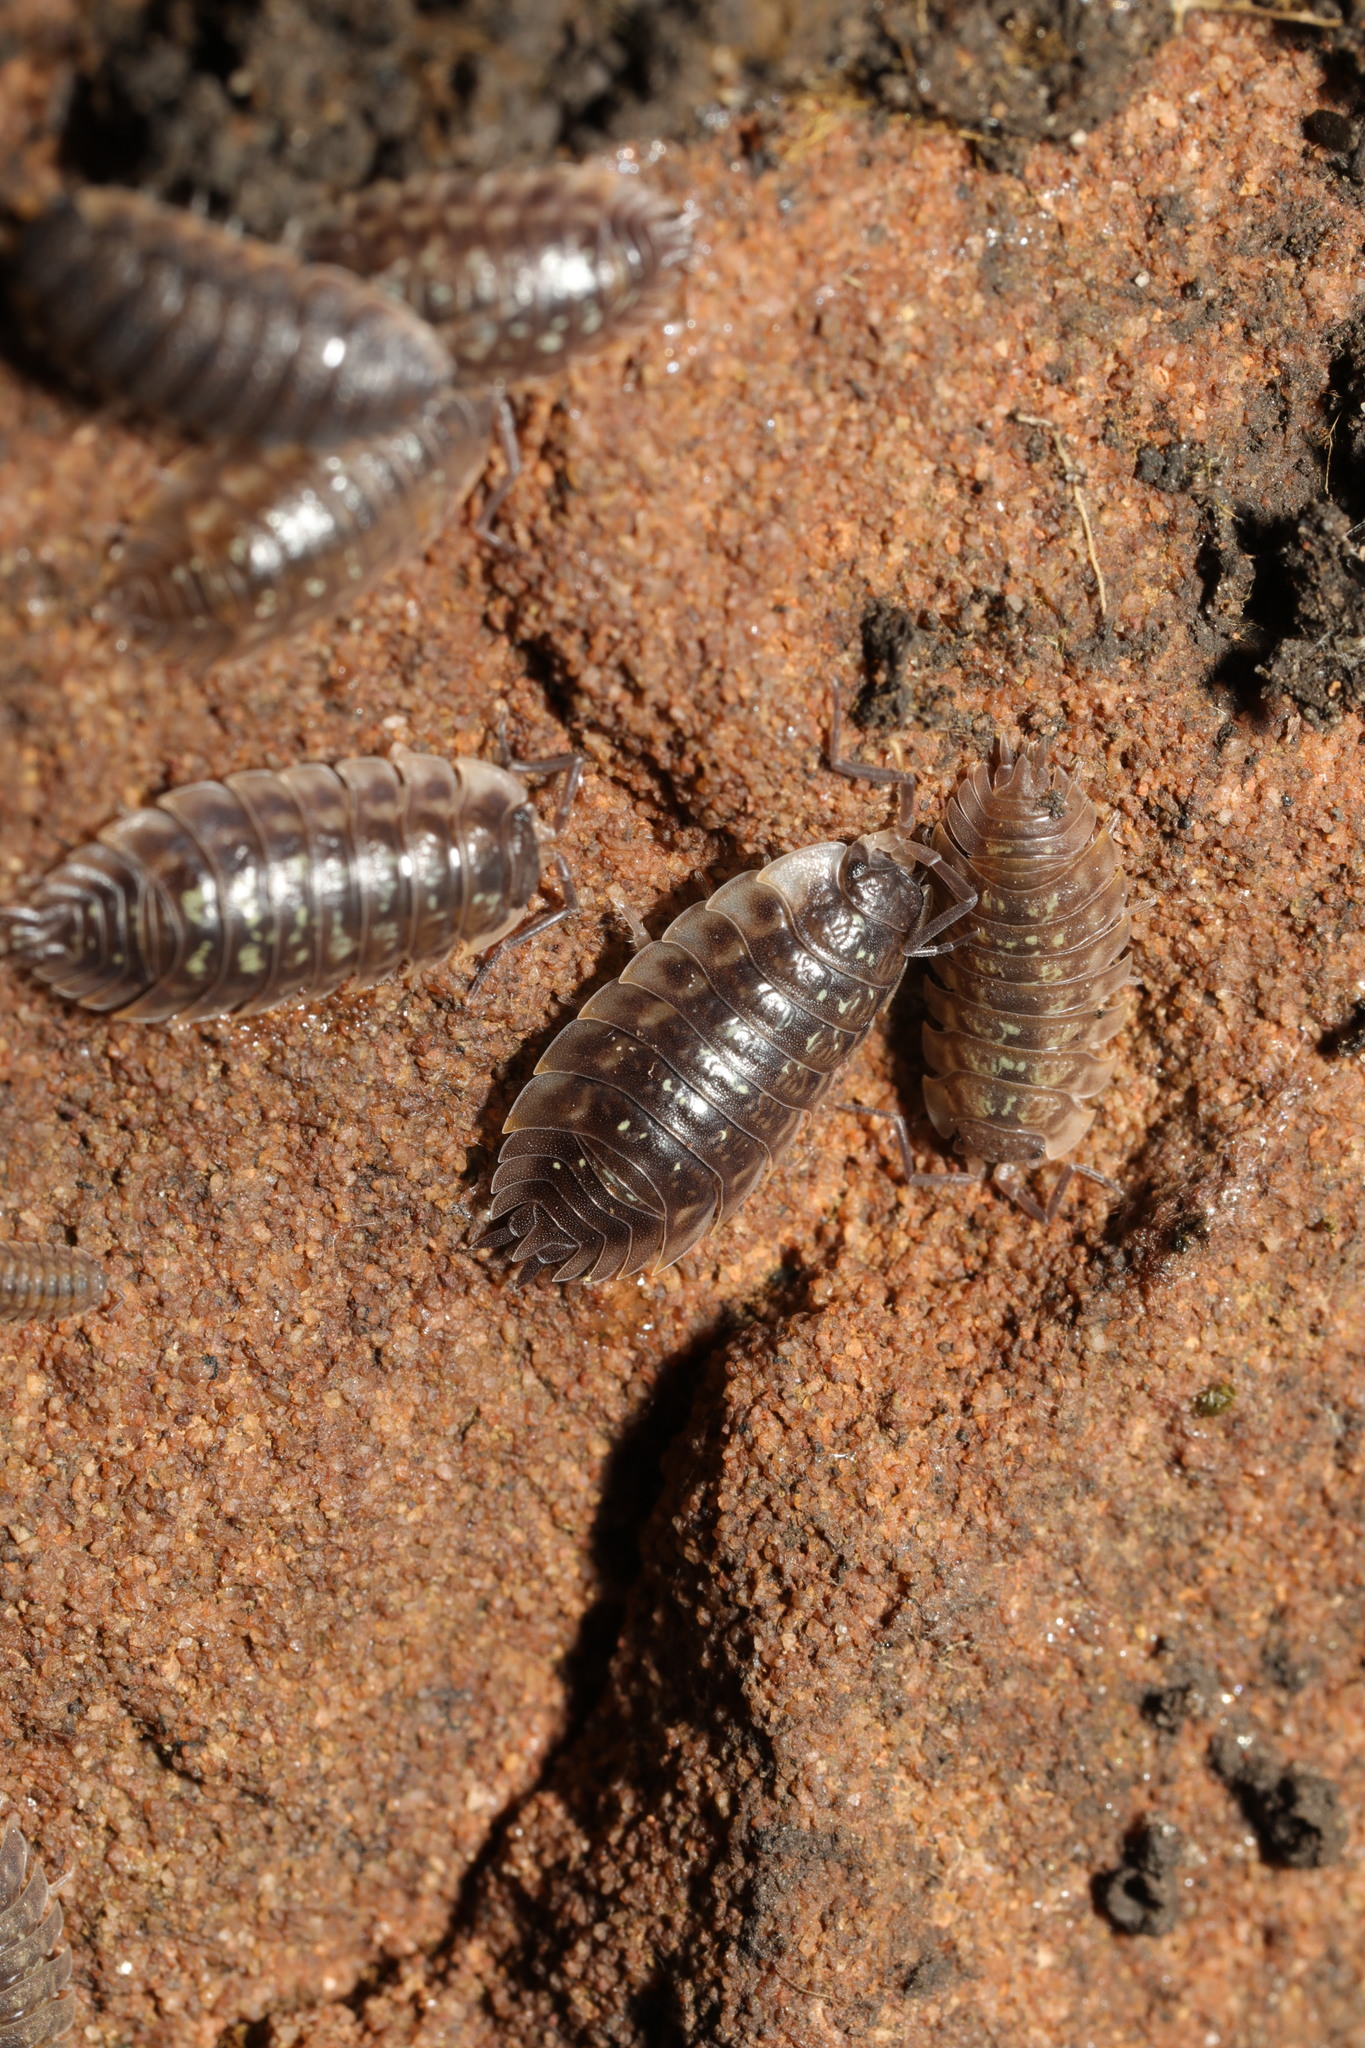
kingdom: Animalia
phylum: Arthropoda
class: Malacostraca
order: Isopoda
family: Oniscidae
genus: Oniscus
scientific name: Oniscus asellus
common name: Common shiny woodlouse
